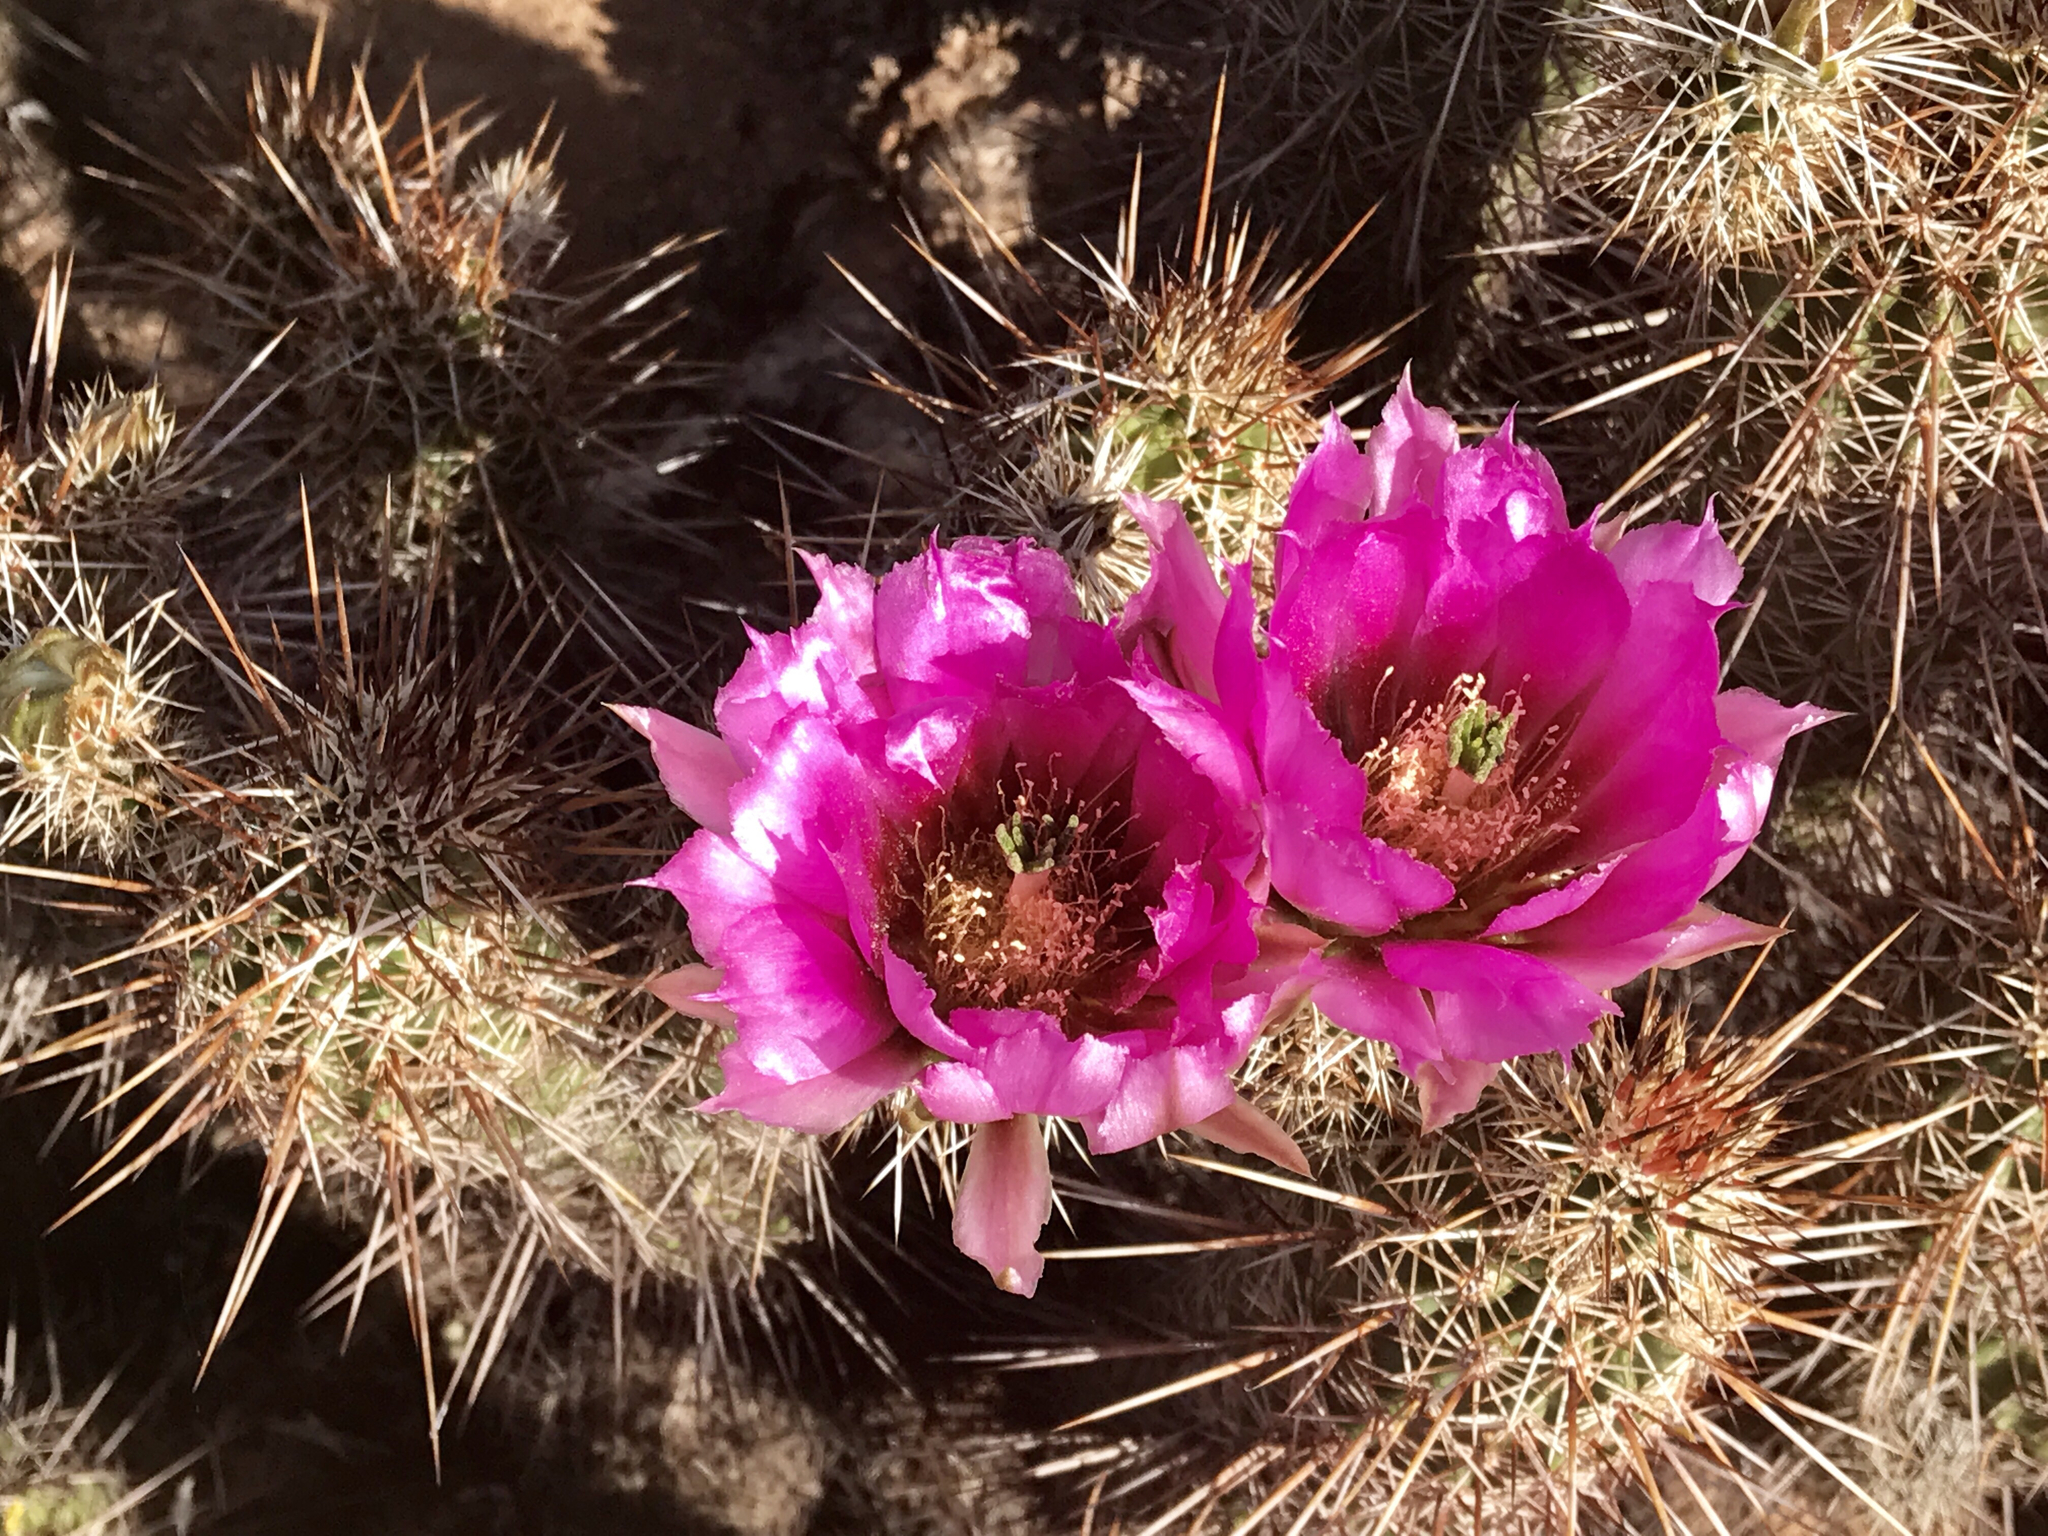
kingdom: Plantae
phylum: Tracheophyta
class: Magnoliopsida
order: Caryophyllales
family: Cactaceae
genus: Echinocereus
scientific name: Echinocereus fasciculatus
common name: Bundle hedgehog
